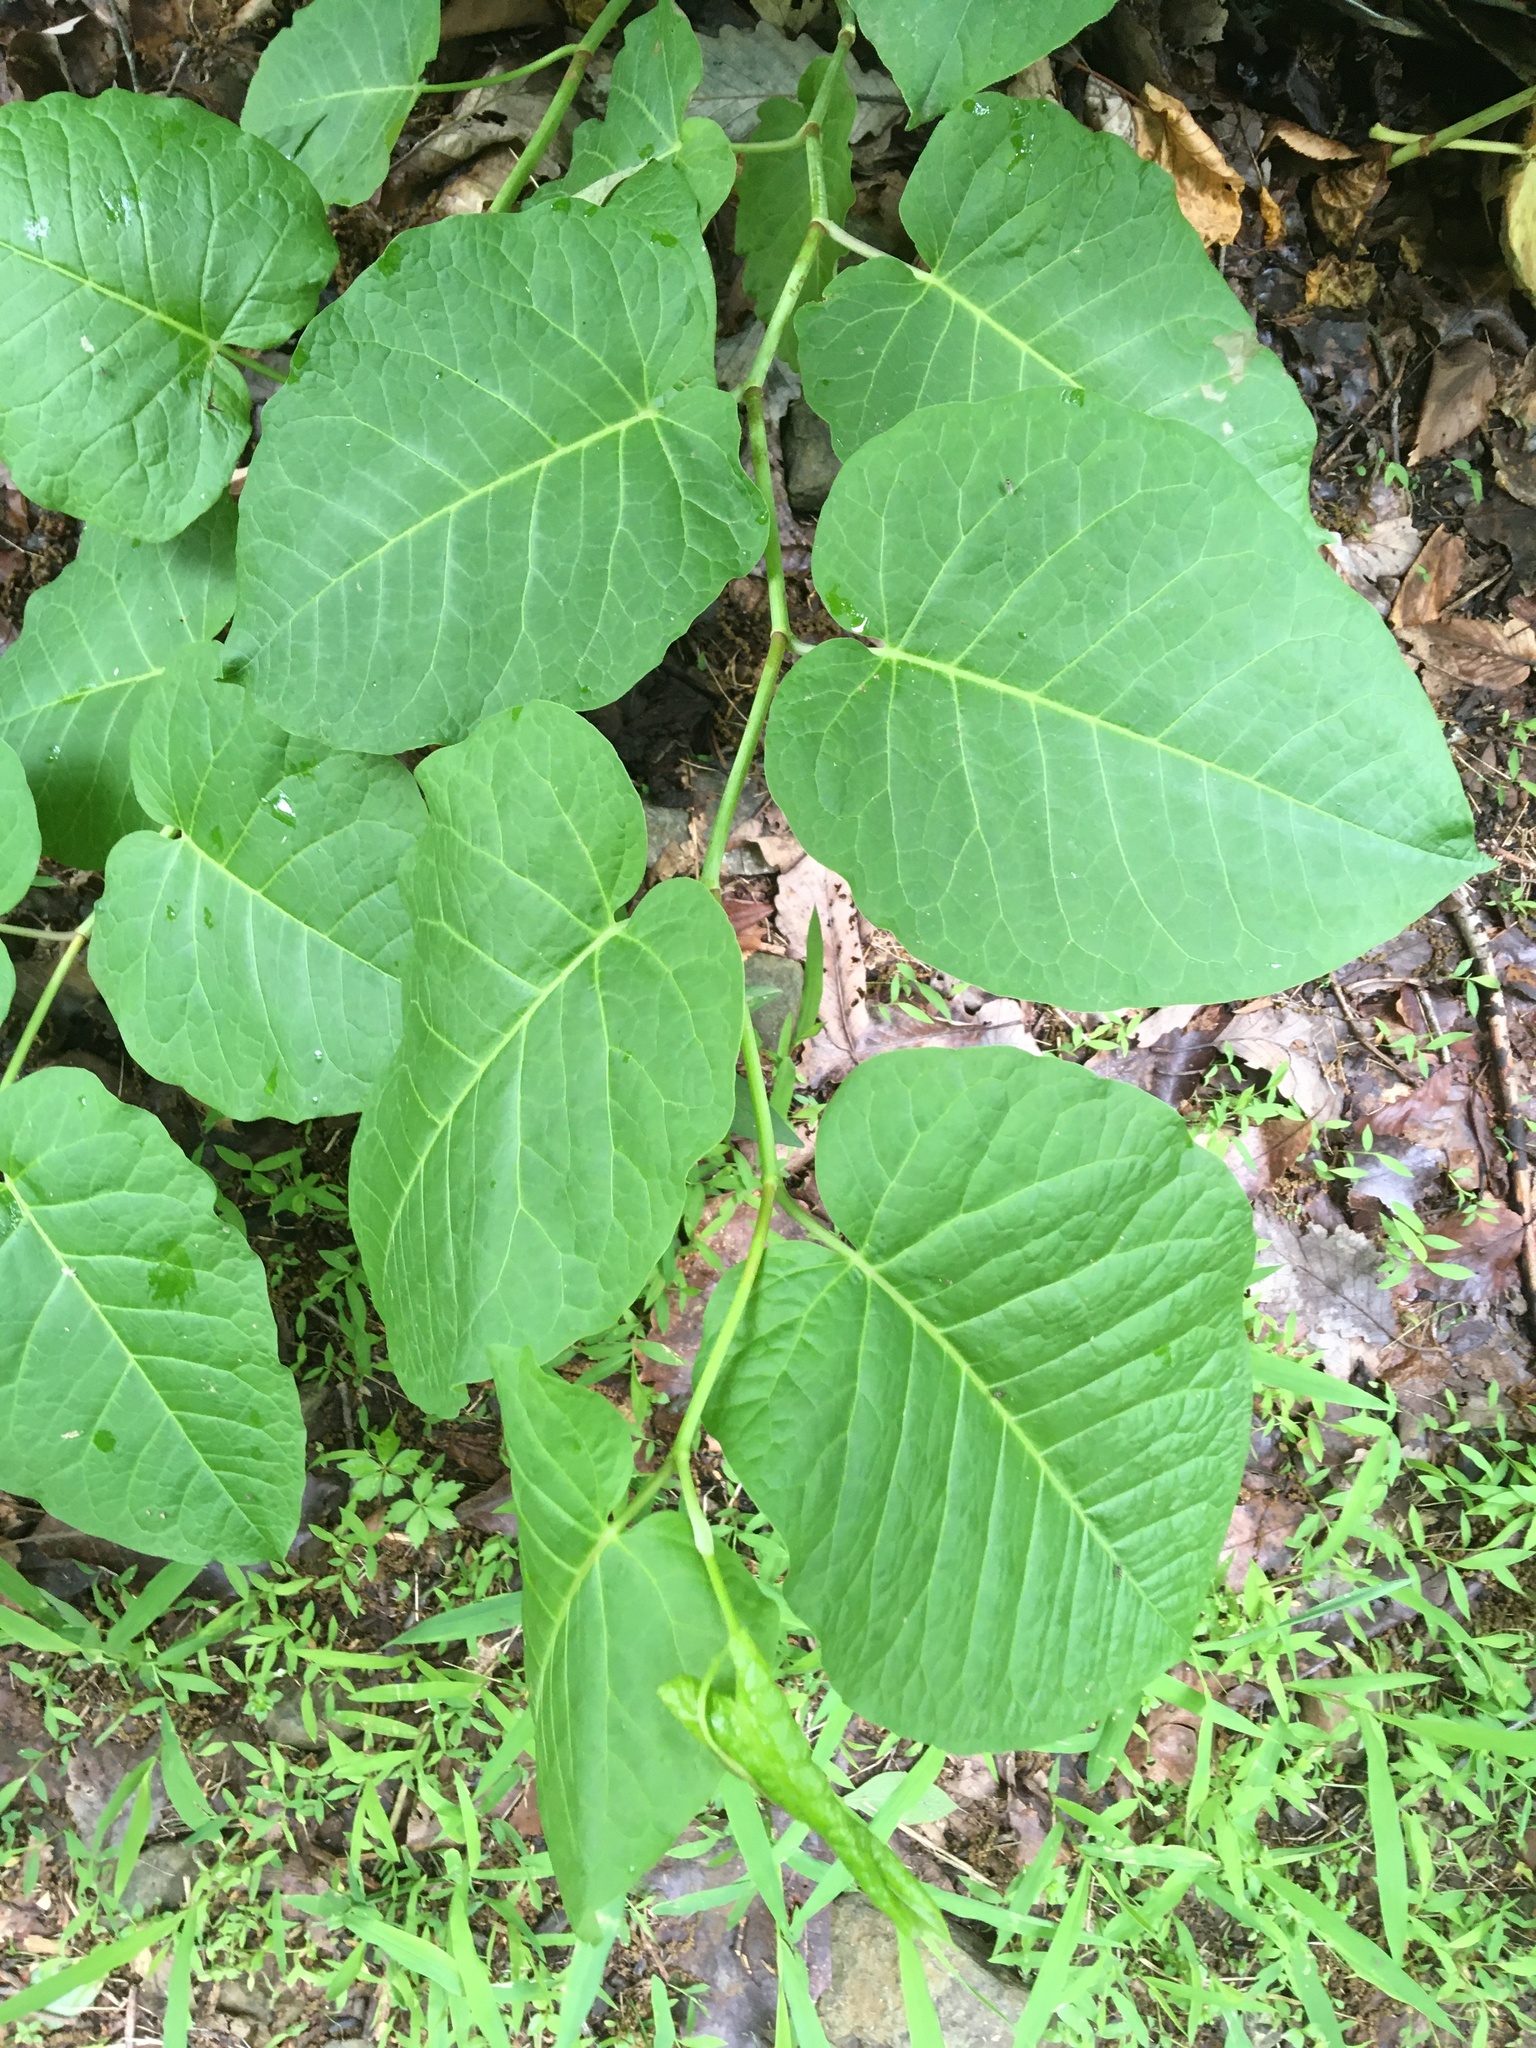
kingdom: Plantae
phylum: Tracheophyta
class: Magnoliopsida
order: Caryophyllales
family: Polygonaceae
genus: Reynoutria
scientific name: Reynoutria sachalinensis
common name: Giant knotweed
